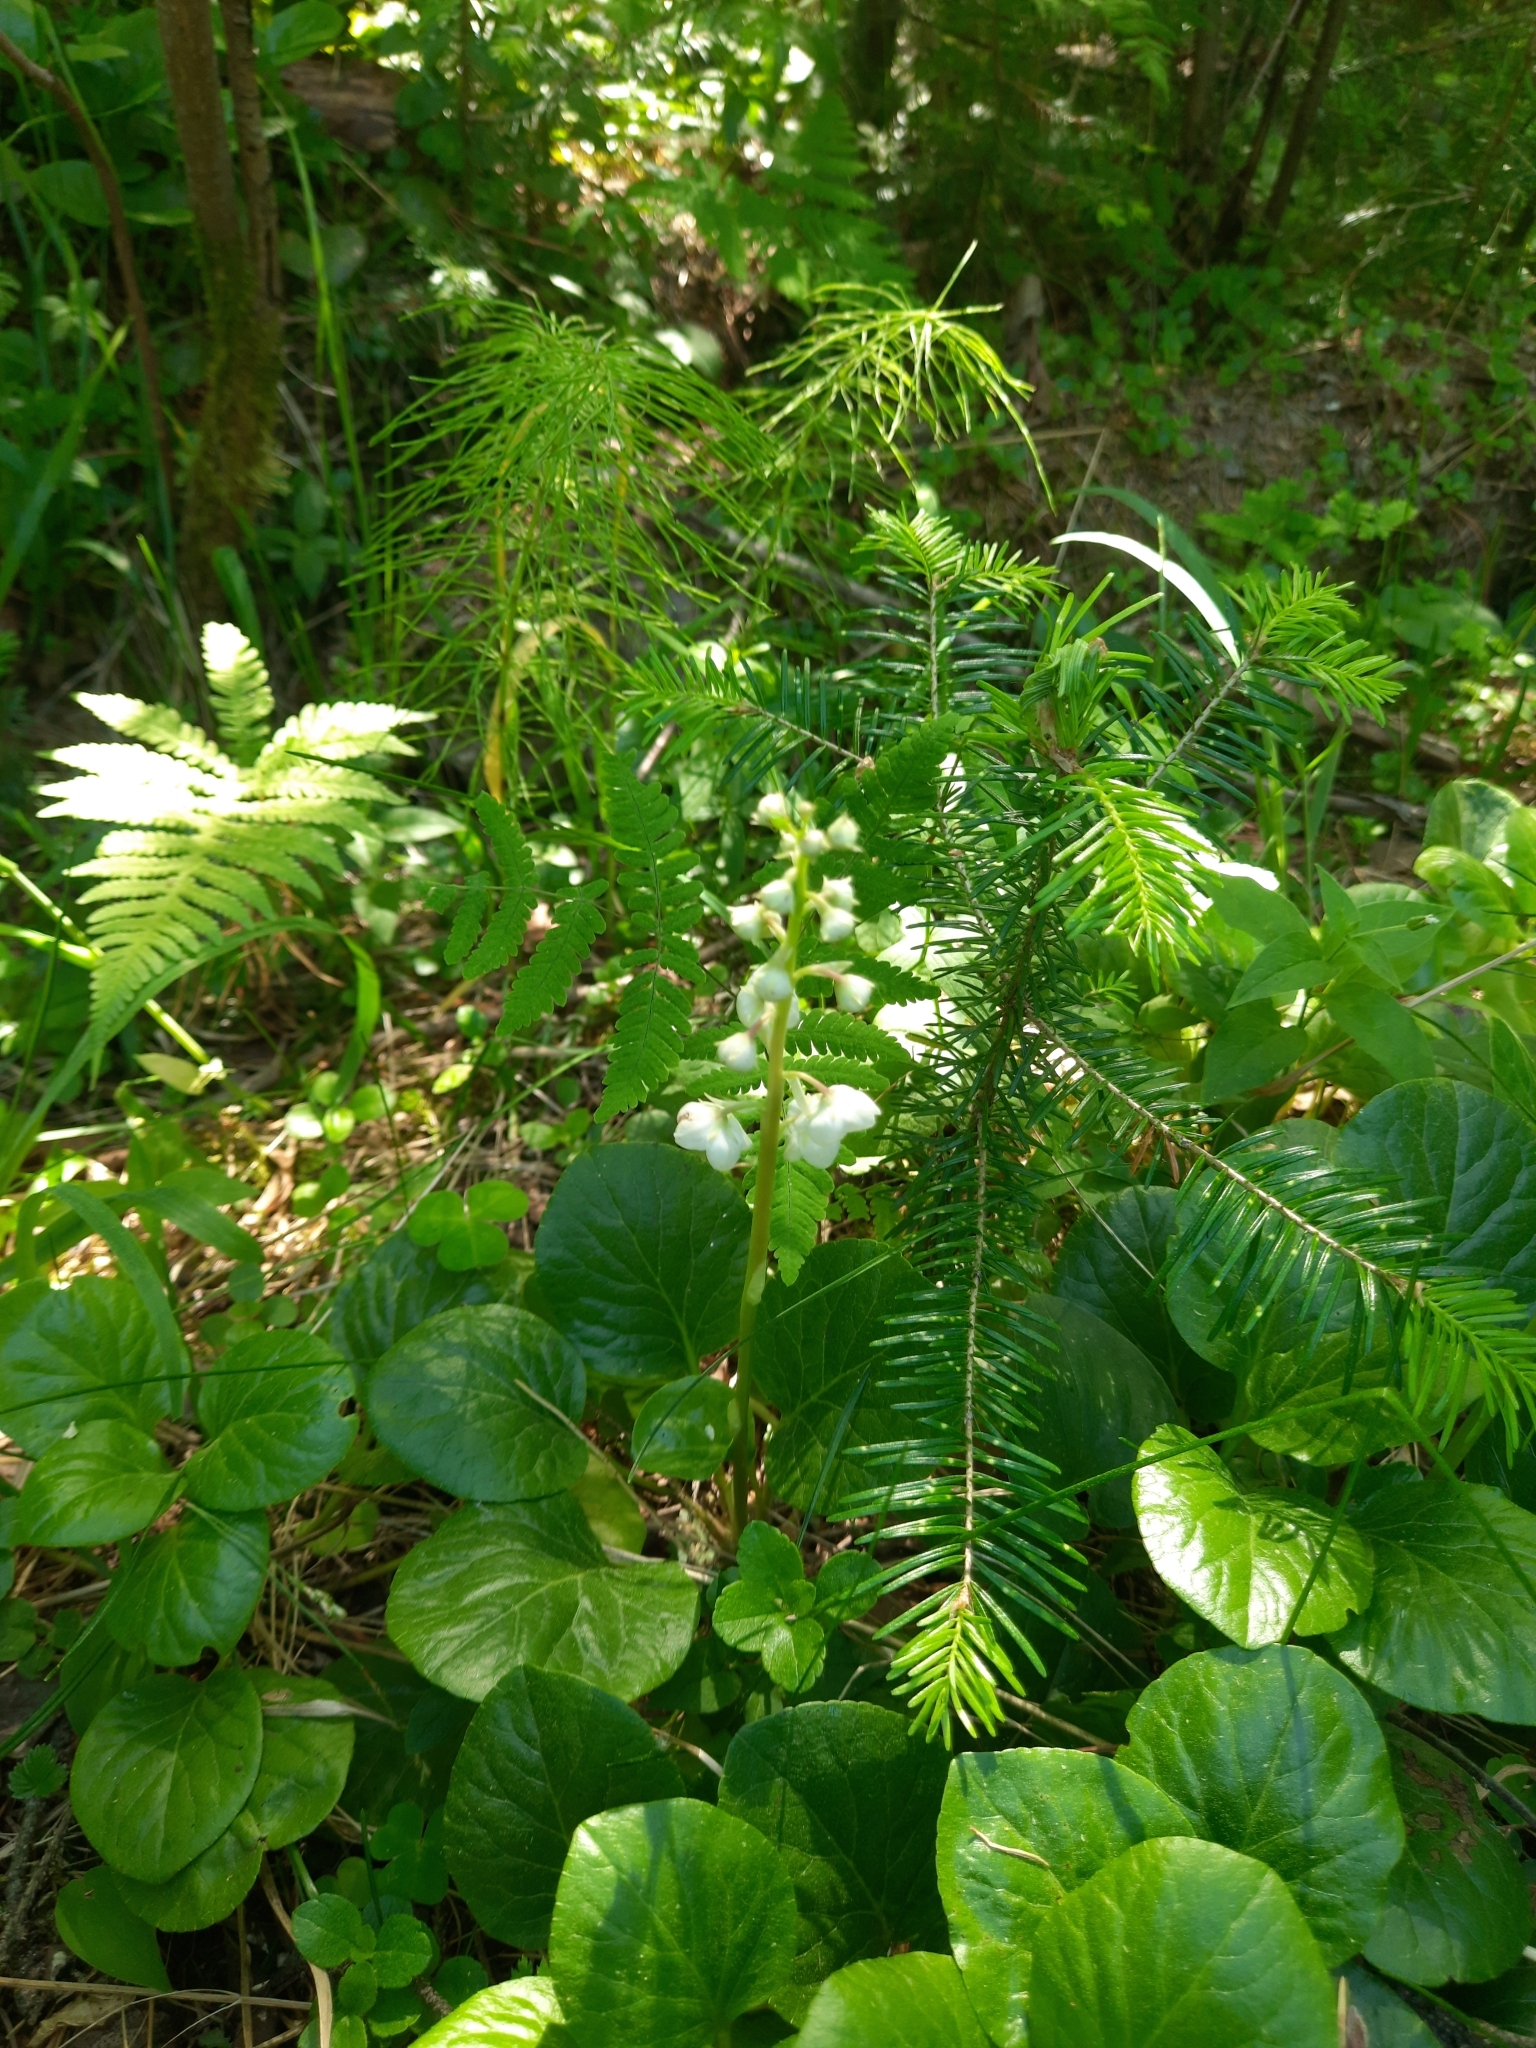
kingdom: Plantae
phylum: Tracheophyta
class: Magnoliopsida
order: Ericales
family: Ericaceae
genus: Pyrola
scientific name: Pyrola rotundifolia
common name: Round-leaved wintergreen
